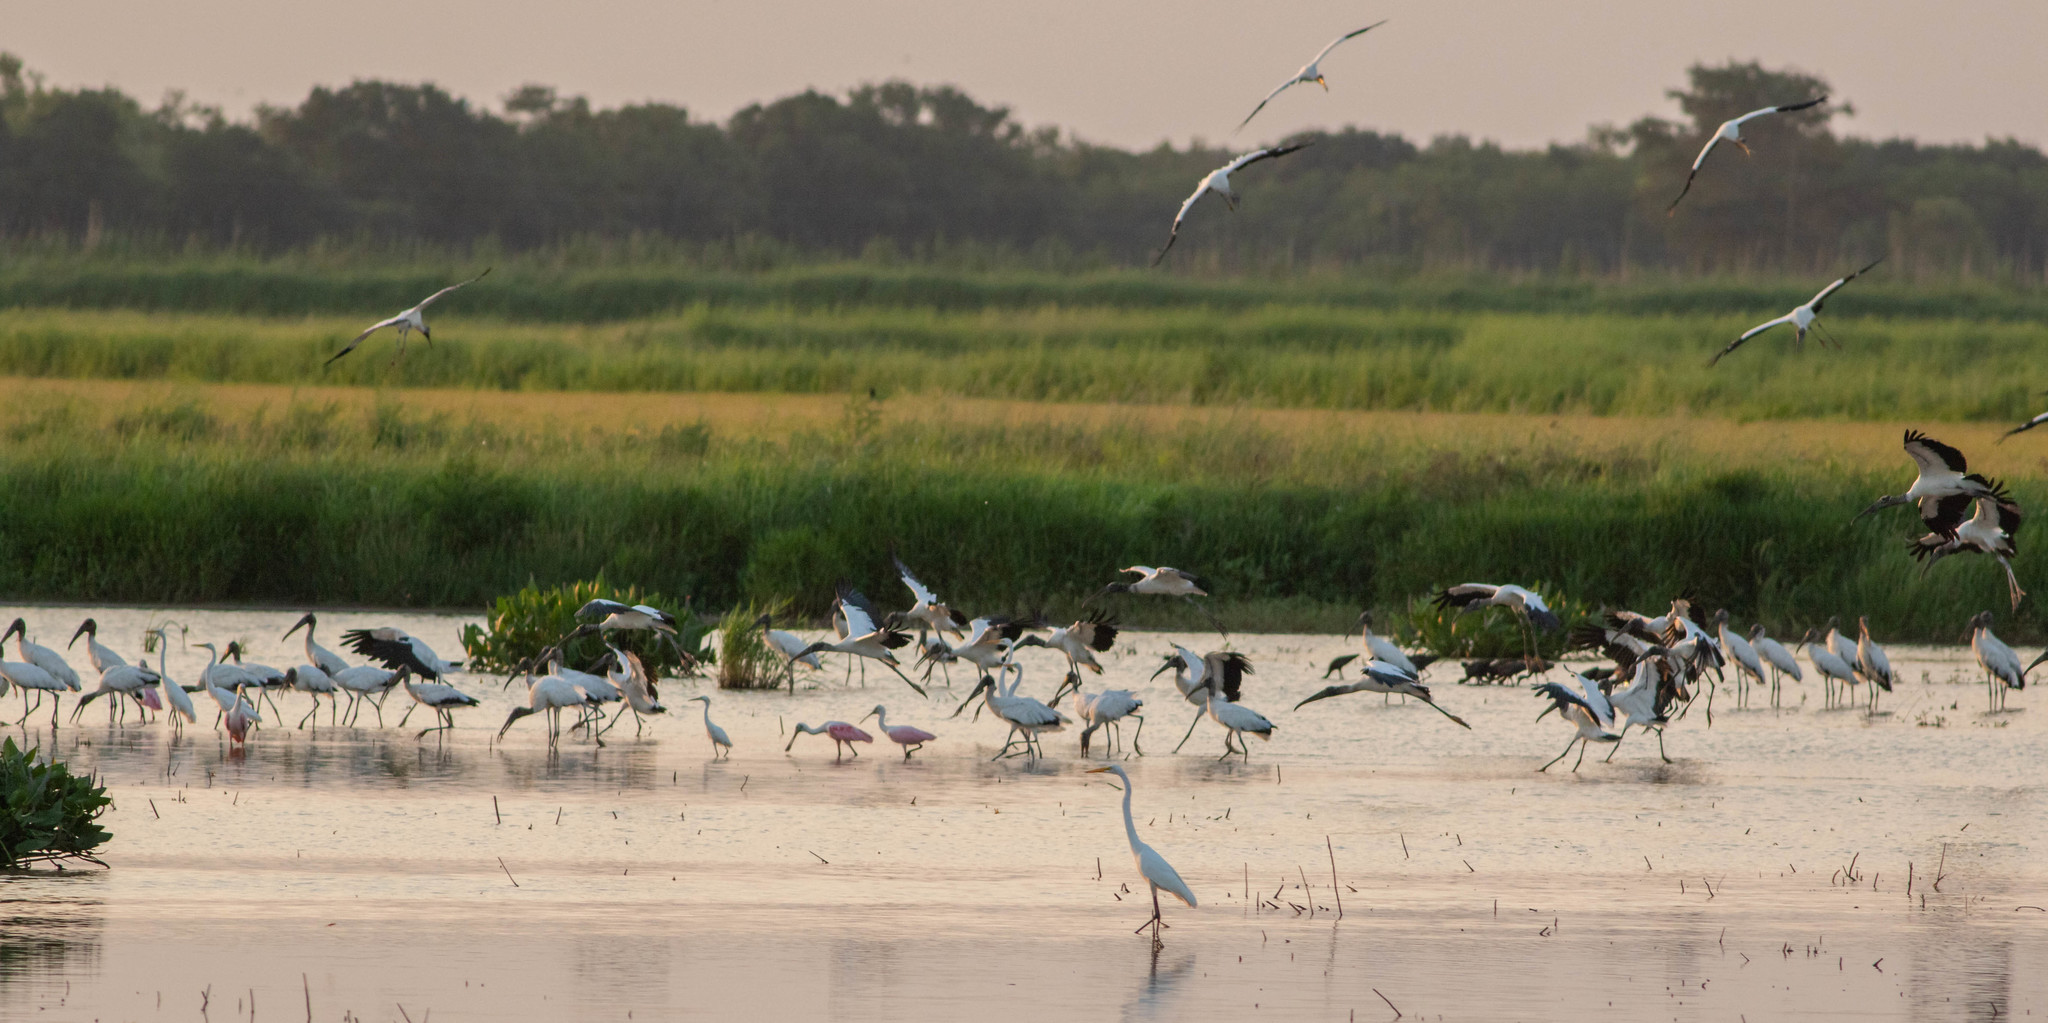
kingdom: Animalia
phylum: Chordata
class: Aves
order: Pelecaniformes
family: Threskiornithidae
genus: Platalea
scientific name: Platalea ajaja
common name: Roseate spoonbill
